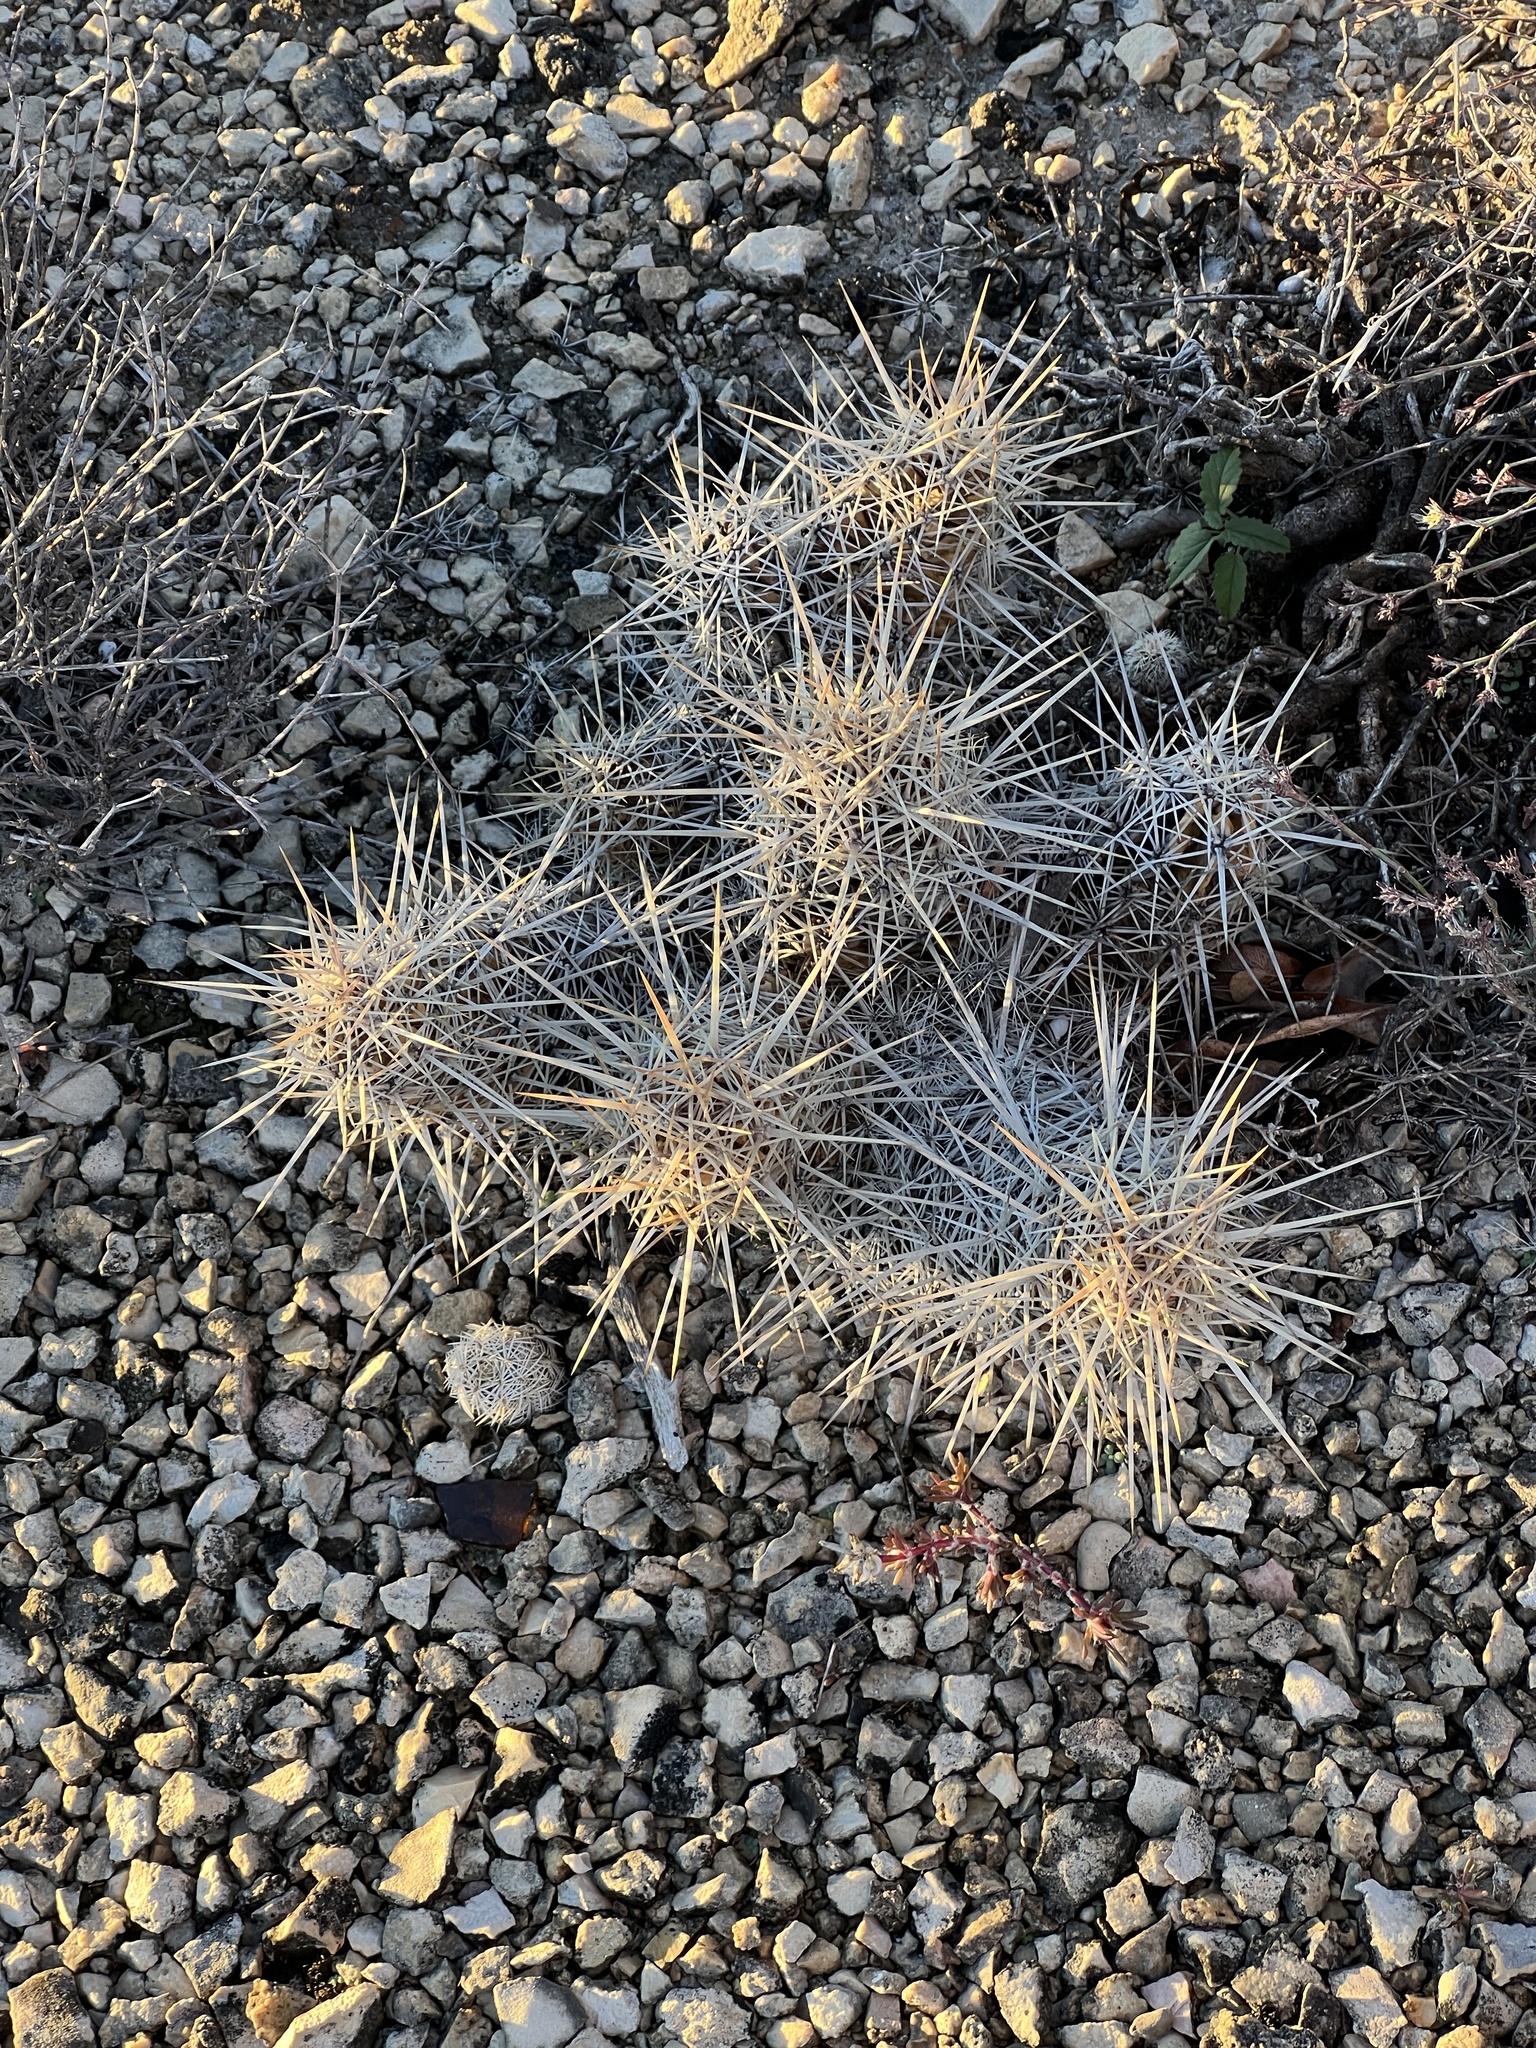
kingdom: Plantae
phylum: Tracheophyta
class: Magnoliopsida
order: Caryophyllales
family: Cactaceae
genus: Echinocereus
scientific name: Echinocereus enneacanthus
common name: Pitaya
